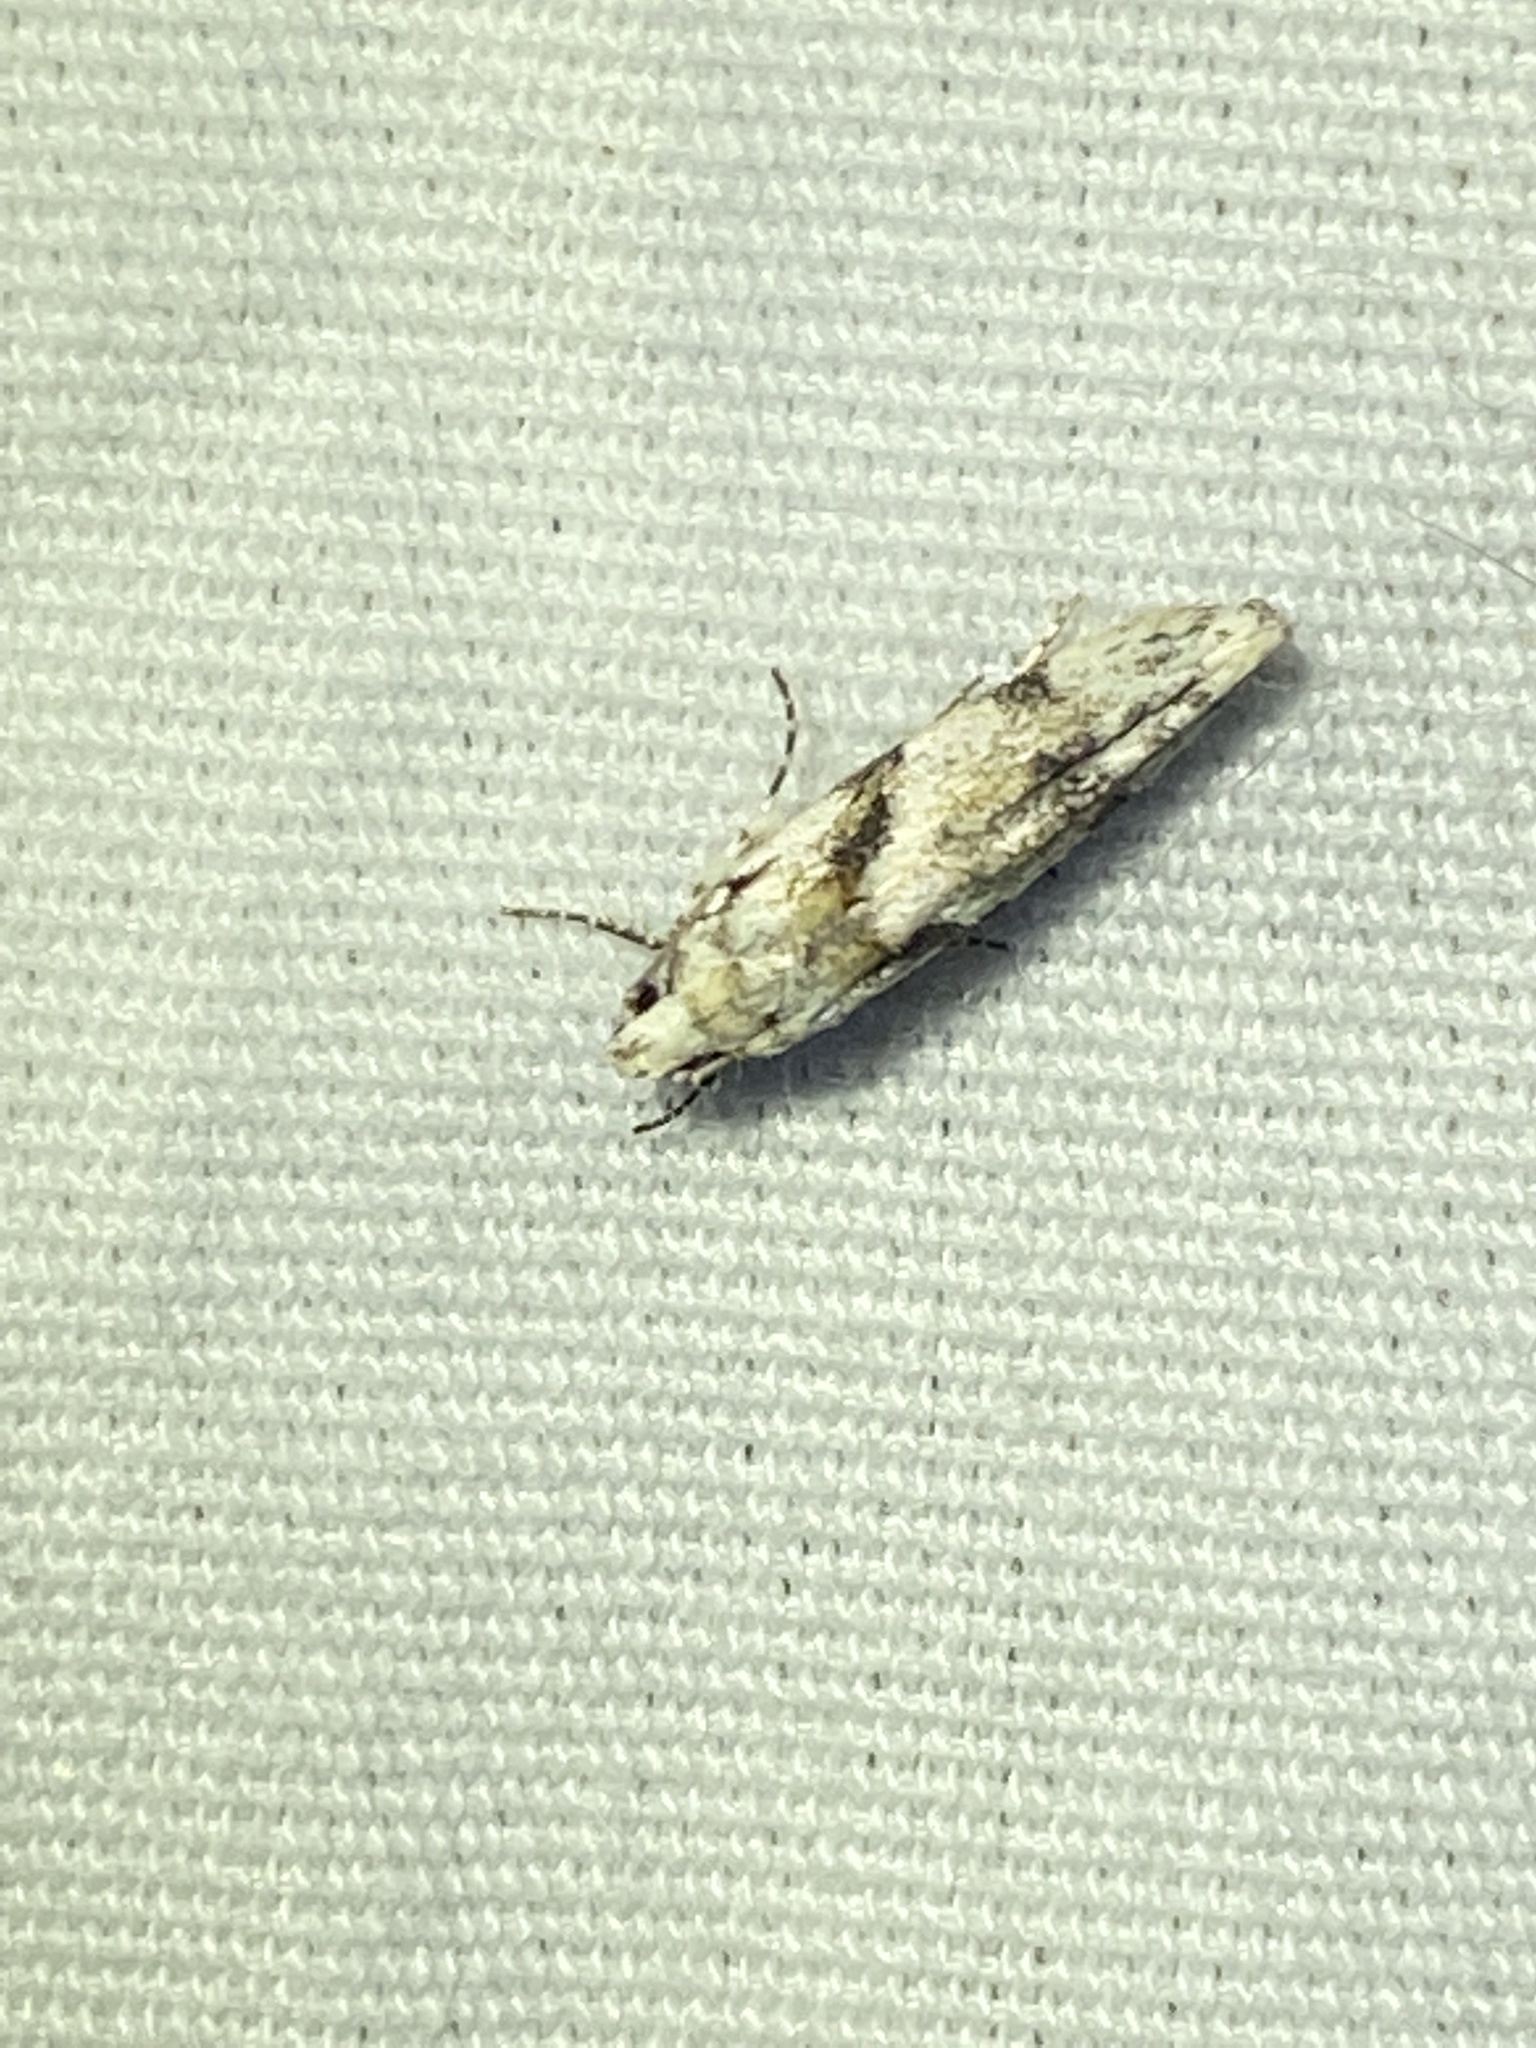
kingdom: Animalia
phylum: Arthropoda
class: Insecta
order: Lepidoptera
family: Gelechiidae
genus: Arogalea
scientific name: Arogalea cristifasciella
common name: White stripe-backed moth
